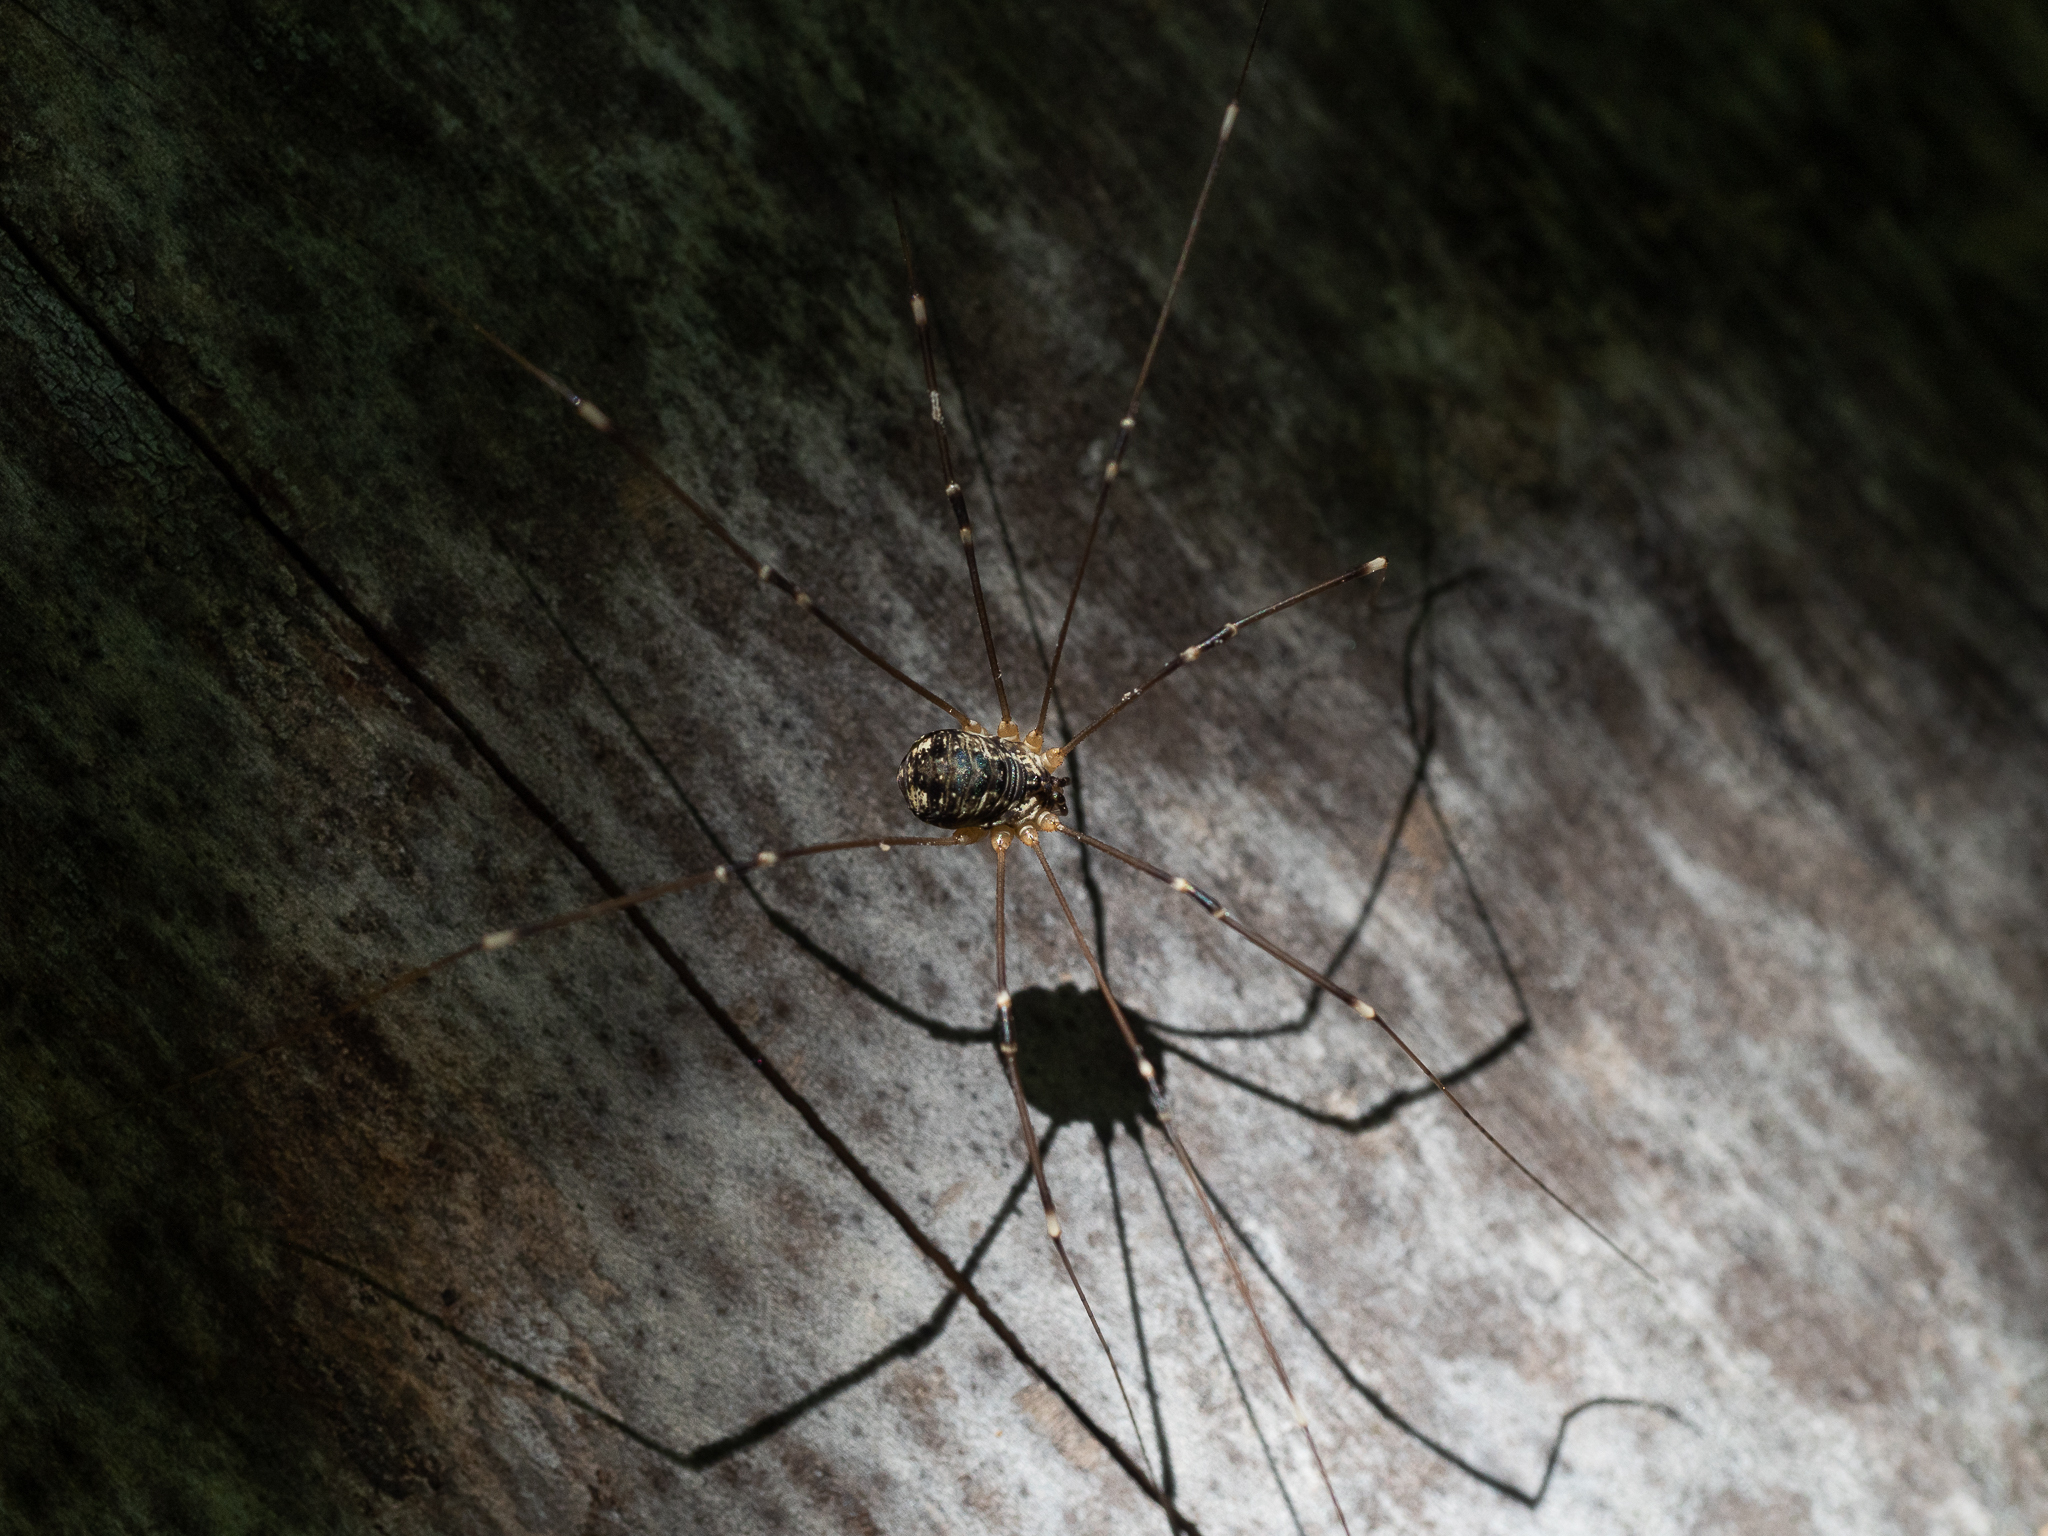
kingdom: Animalia
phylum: Arthropoda
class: Arachnida
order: Opiliones
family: Sclerosomatidae
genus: Leiobunum
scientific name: Leiobunum gracile
